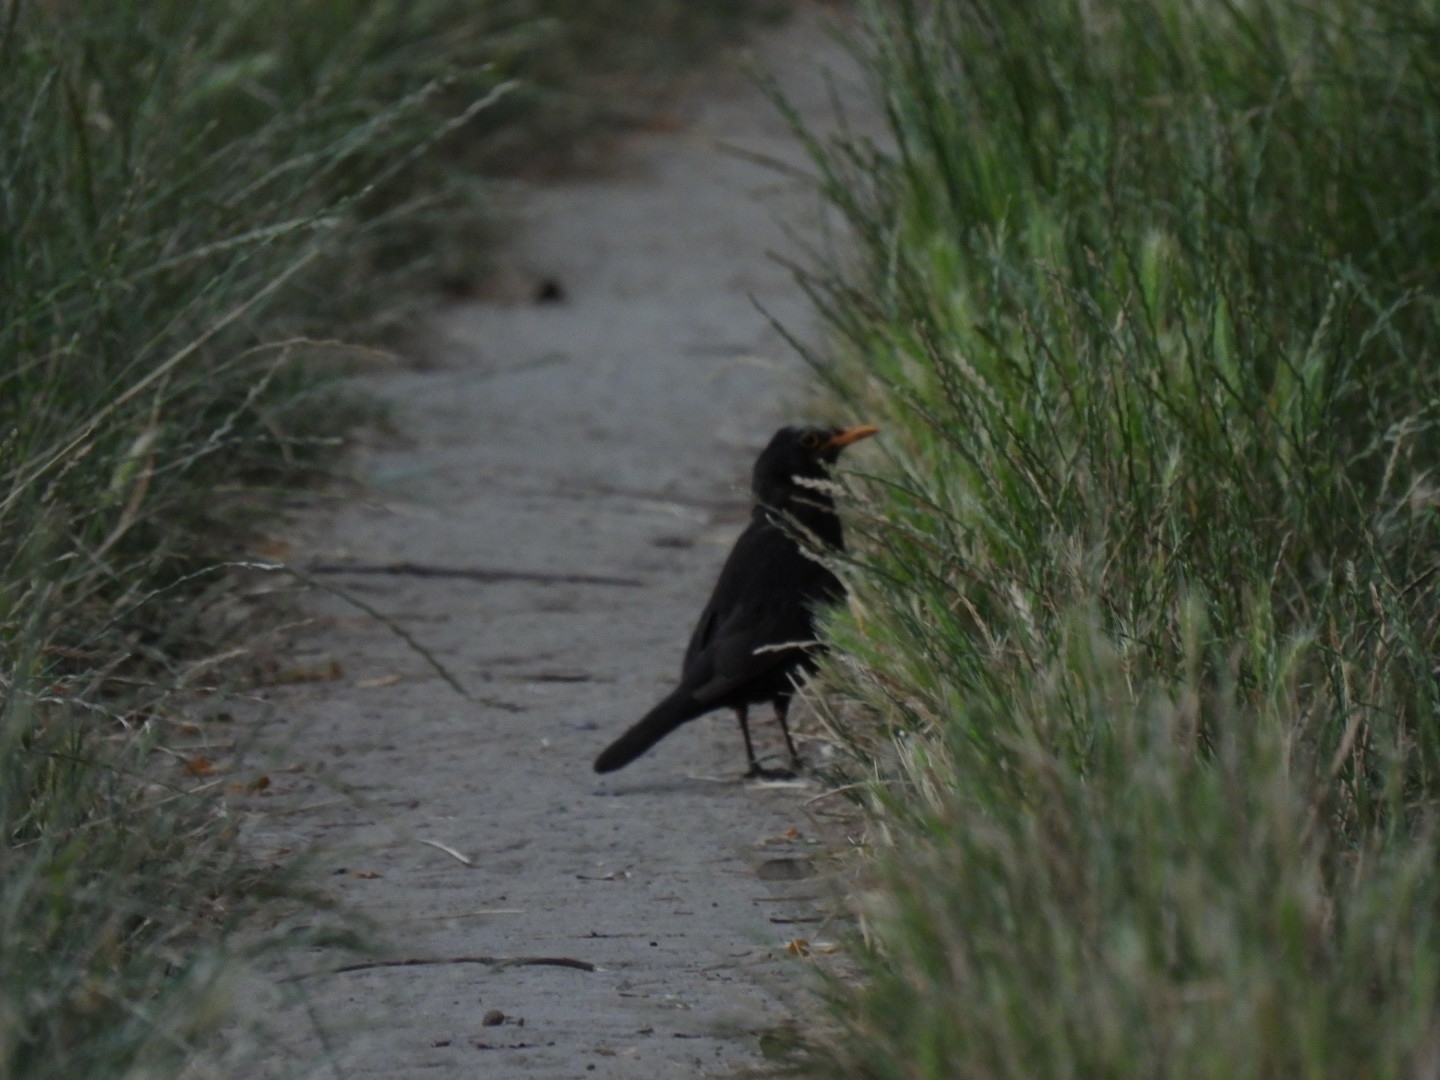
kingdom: Animalia
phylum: Chordata
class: Aves
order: Passeriformes
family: Turdidae
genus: Turdus
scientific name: Turdus merula
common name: Common blackbird
